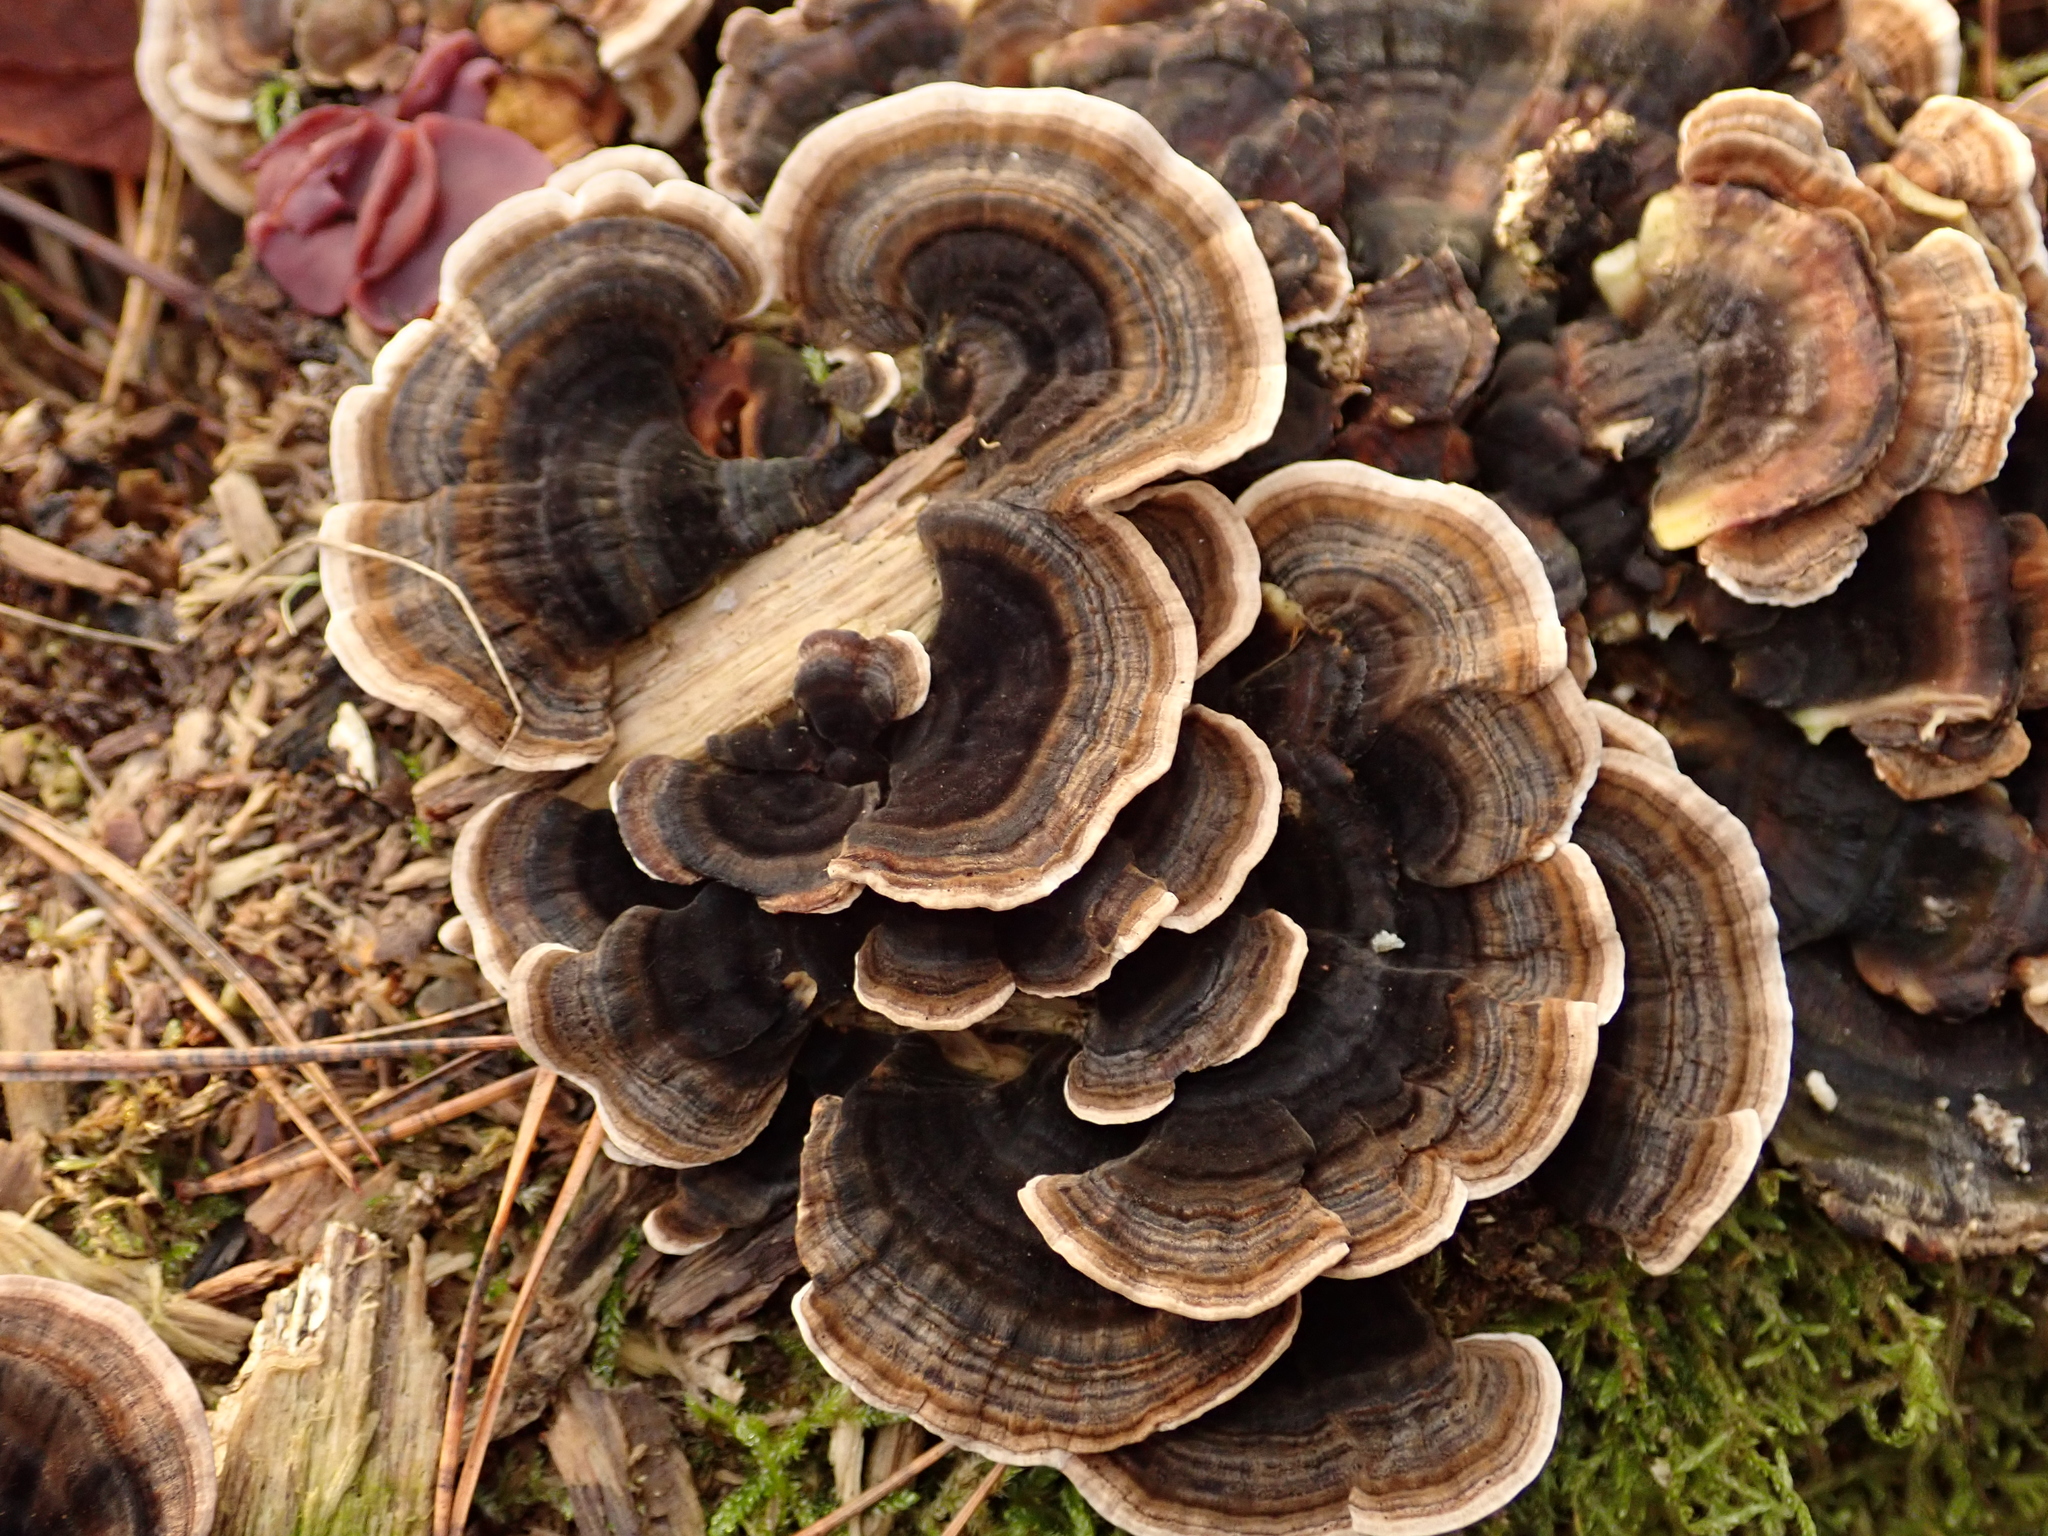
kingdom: Fungi
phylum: Basidiomycota
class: Agaricomycetes
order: Polyporales
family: Polyporaceae
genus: Trametes
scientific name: Trametes versicolor
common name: Turkeytail
